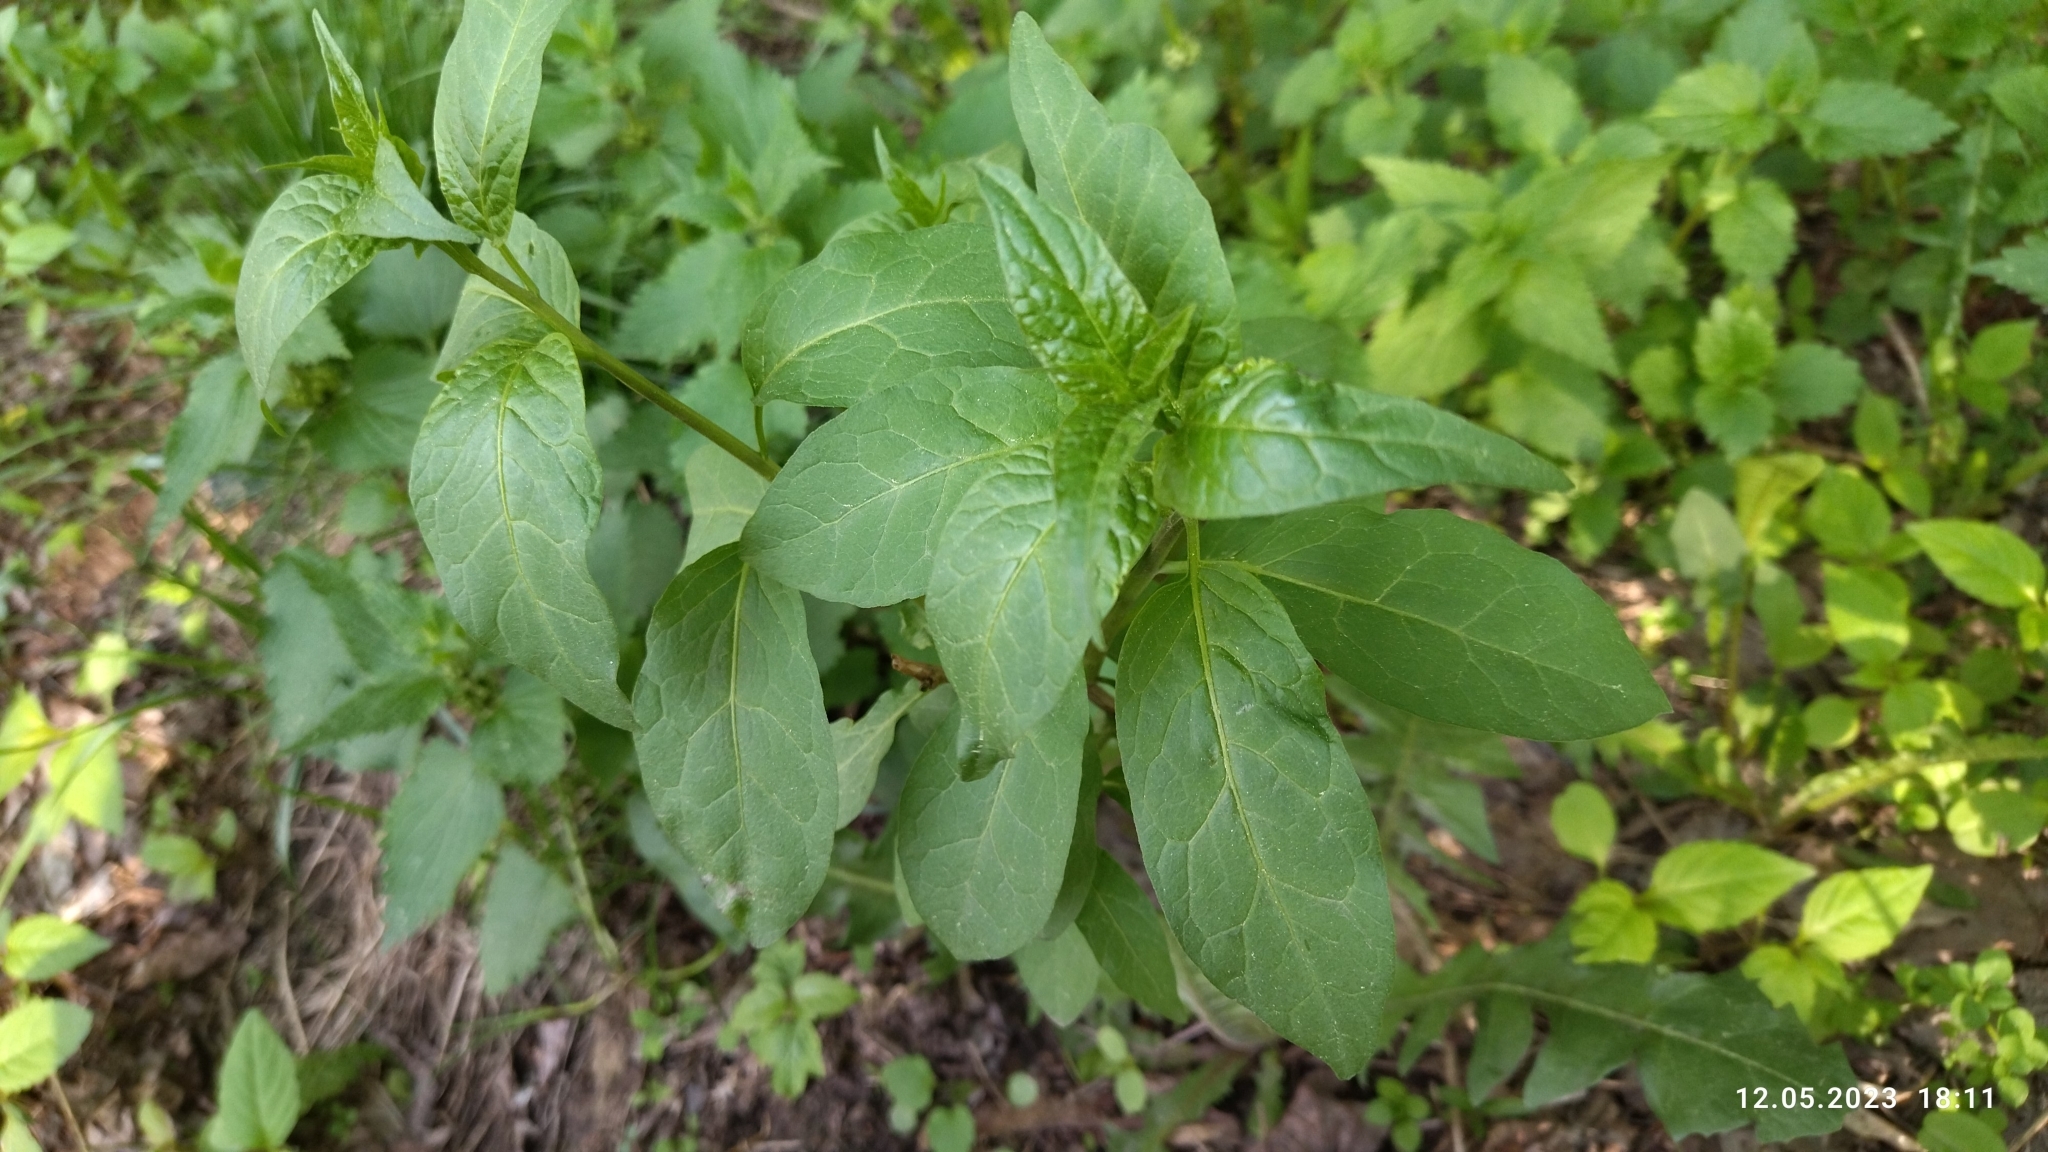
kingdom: Plantae
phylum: Tracheophyta
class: Magnoliopsida
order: Solanales
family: Solanaceae
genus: Solanum
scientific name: Solanum dulcamara
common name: Climbing nightshade
